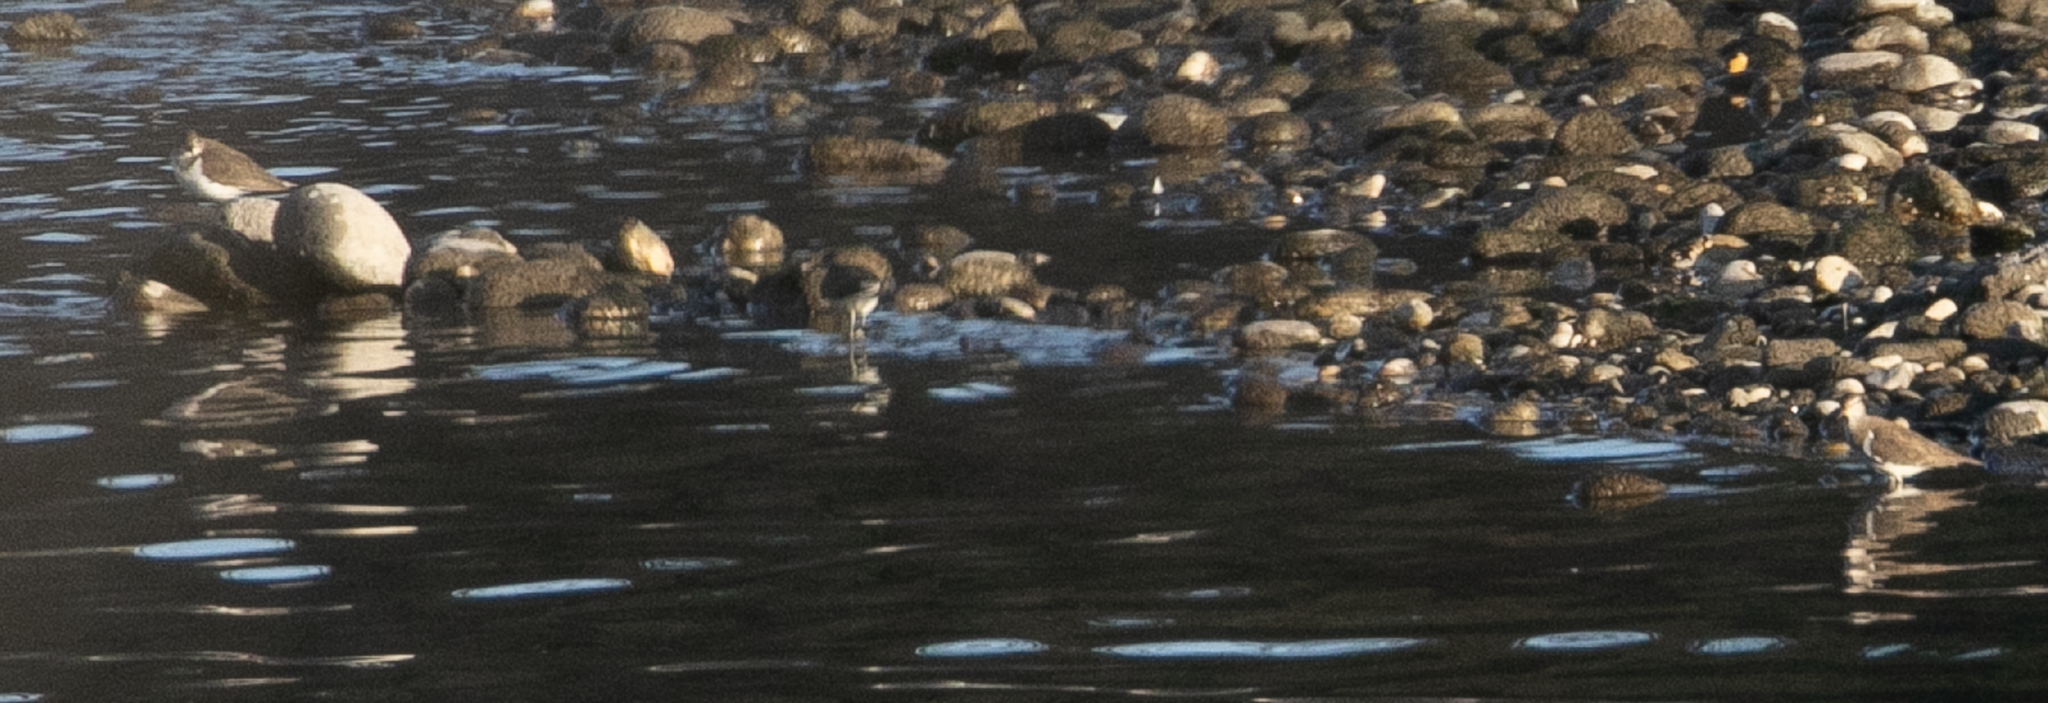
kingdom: Animalia
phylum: Chordata
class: Aves
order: Charadriiformes
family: Scolopacidae
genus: Actitis
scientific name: Actitis hypoleucos
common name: Common sandpiper
